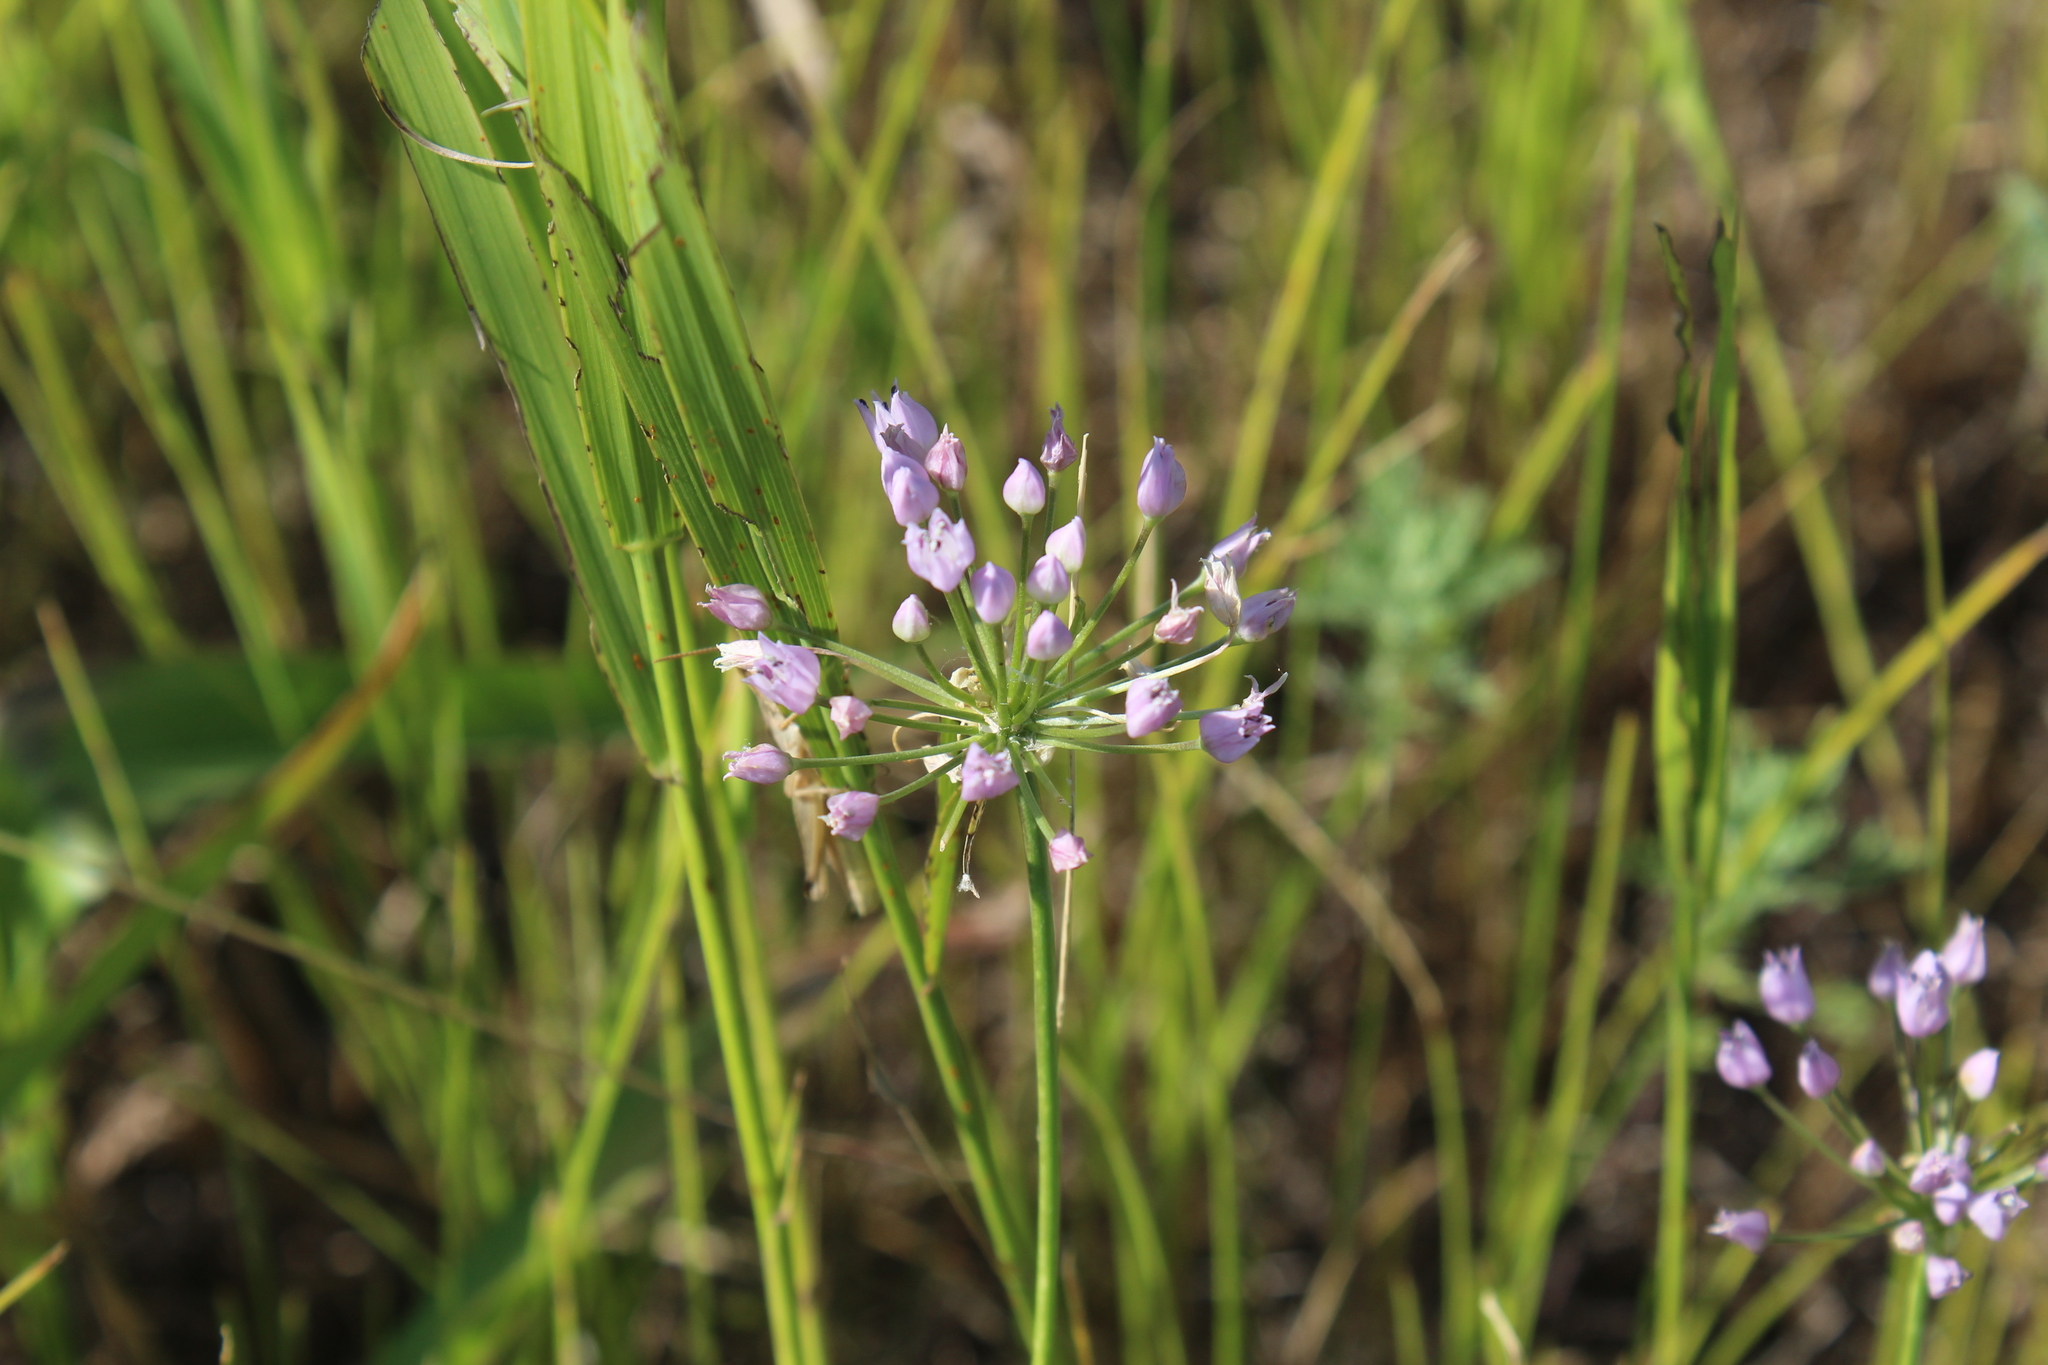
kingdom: Plantae
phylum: Tracheophyta
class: Liliopsida
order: Asparagales
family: Amaryllidaceae
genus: Allium
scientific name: Allium angulosum
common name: Mouse garlic
